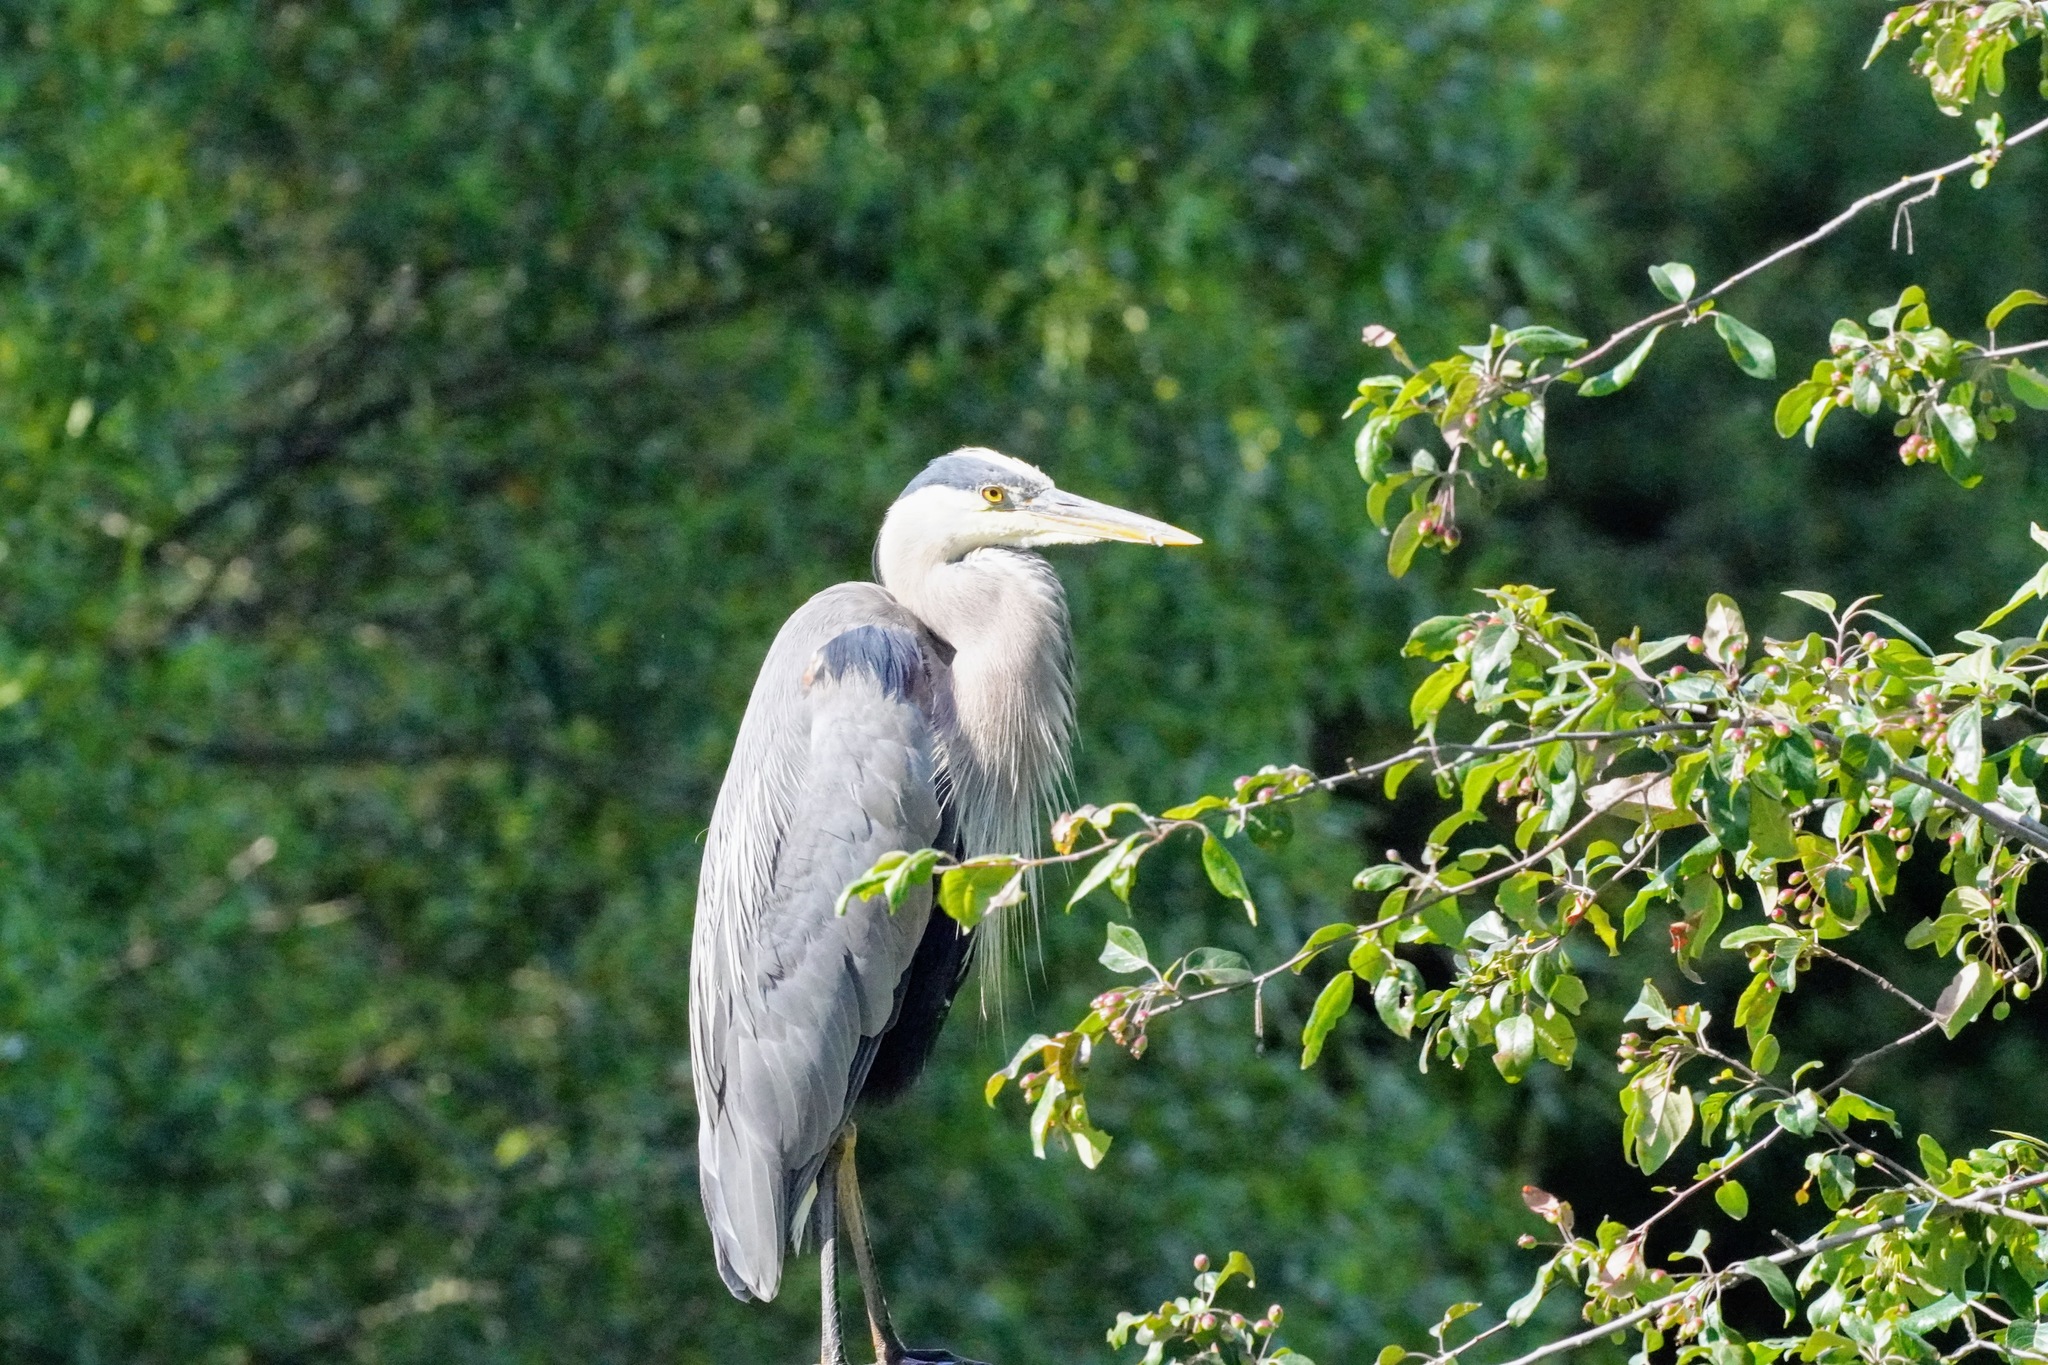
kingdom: Animalia
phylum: Chordata
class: Aves
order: Pelecaniformes
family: Ardeidae
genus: Ardea
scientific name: Ardea herodias
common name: Great blue heron
